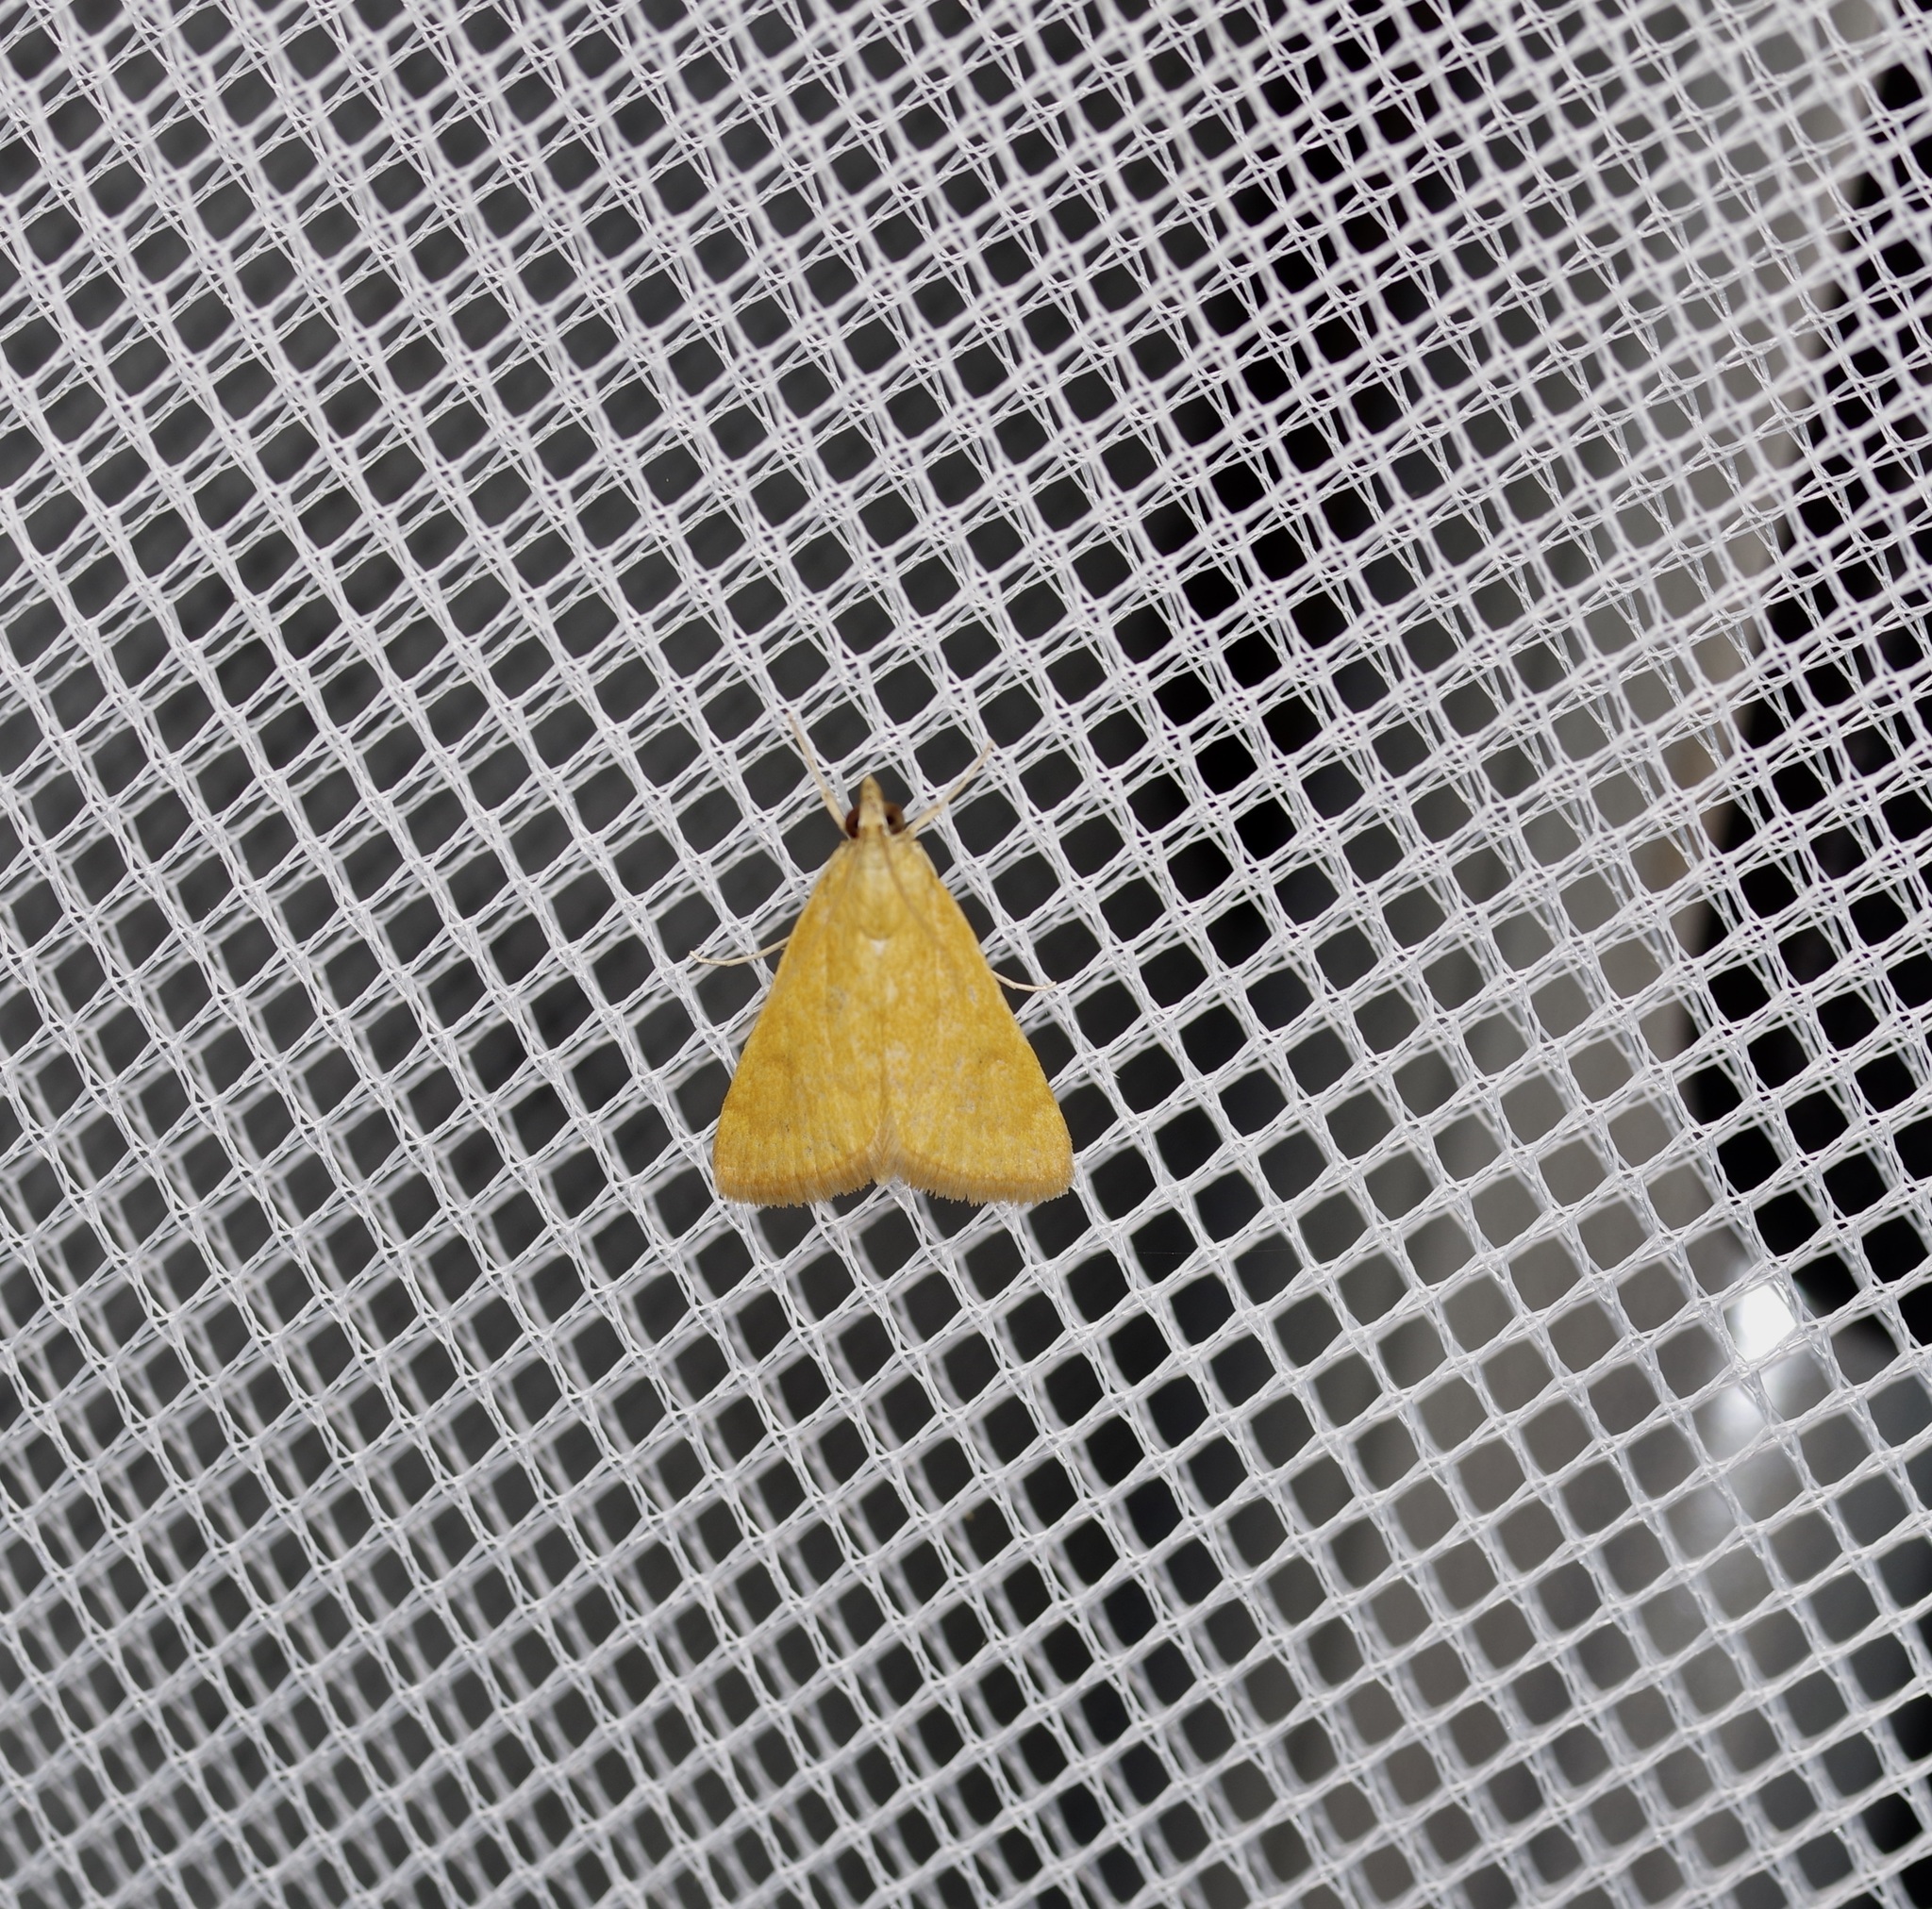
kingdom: Animalia
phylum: Arthropoda
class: Insecta
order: Lepidoptera
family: Crambidae
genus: Achyra
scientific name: Achyra rantalis
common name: Garden webworm
